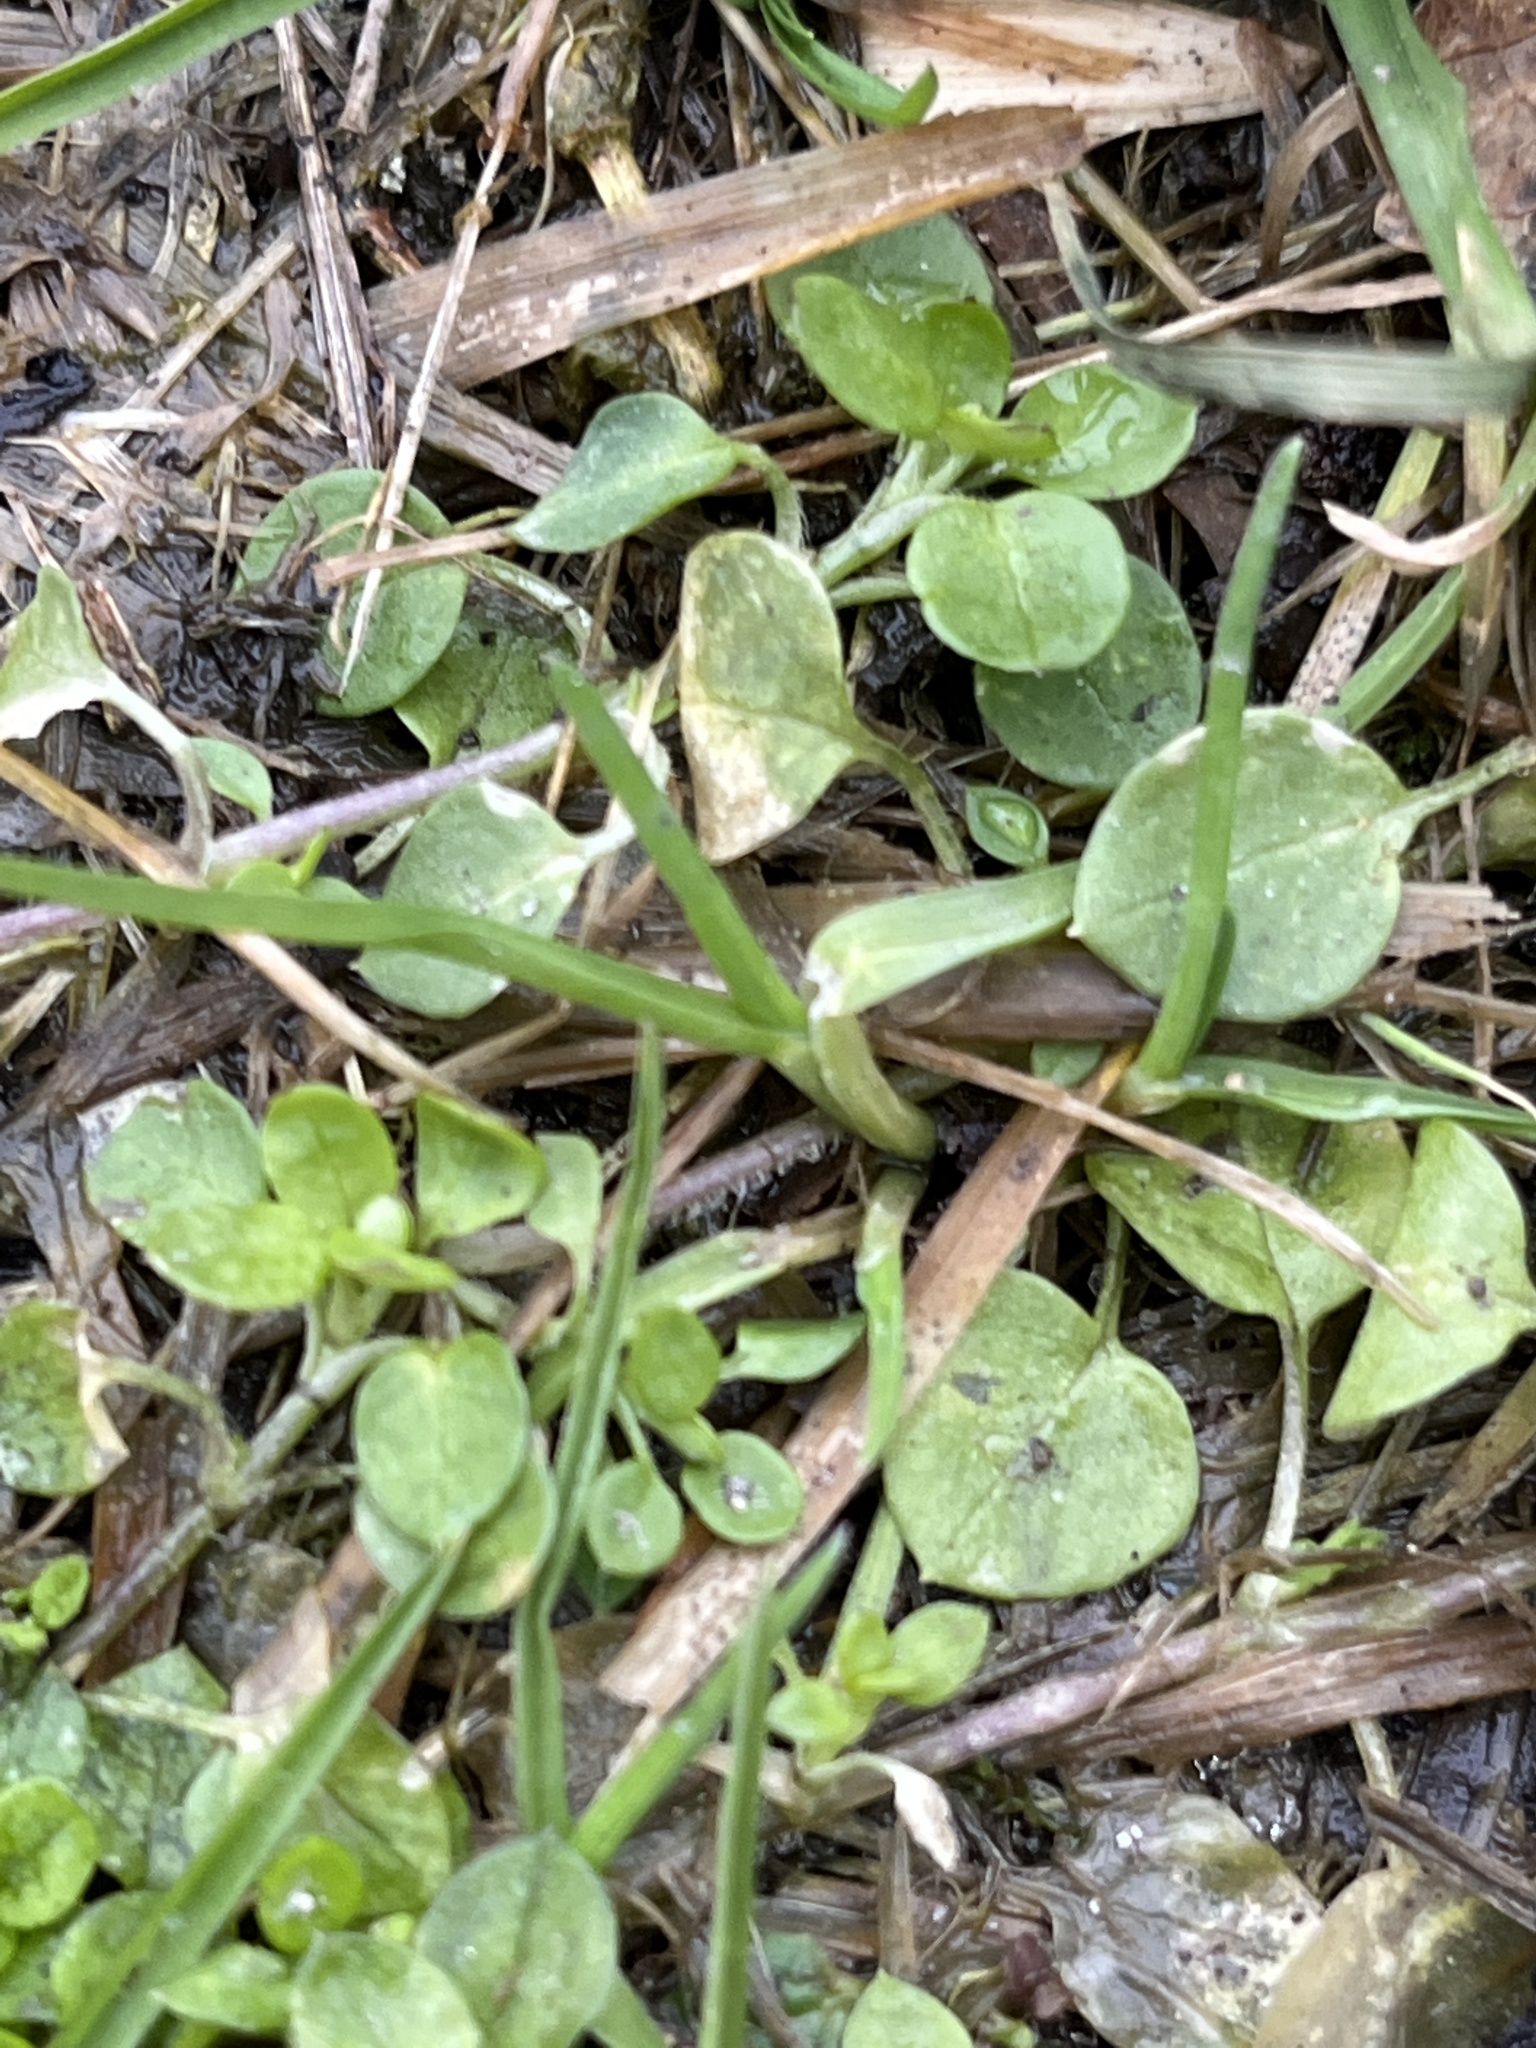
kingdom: Plantae
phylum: Tracheophyta
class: Magnoliopsida
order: Caryophyllales
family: Caryophyllaceae
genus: Stellaria
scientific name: Stellaria media
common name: Common chickweed
